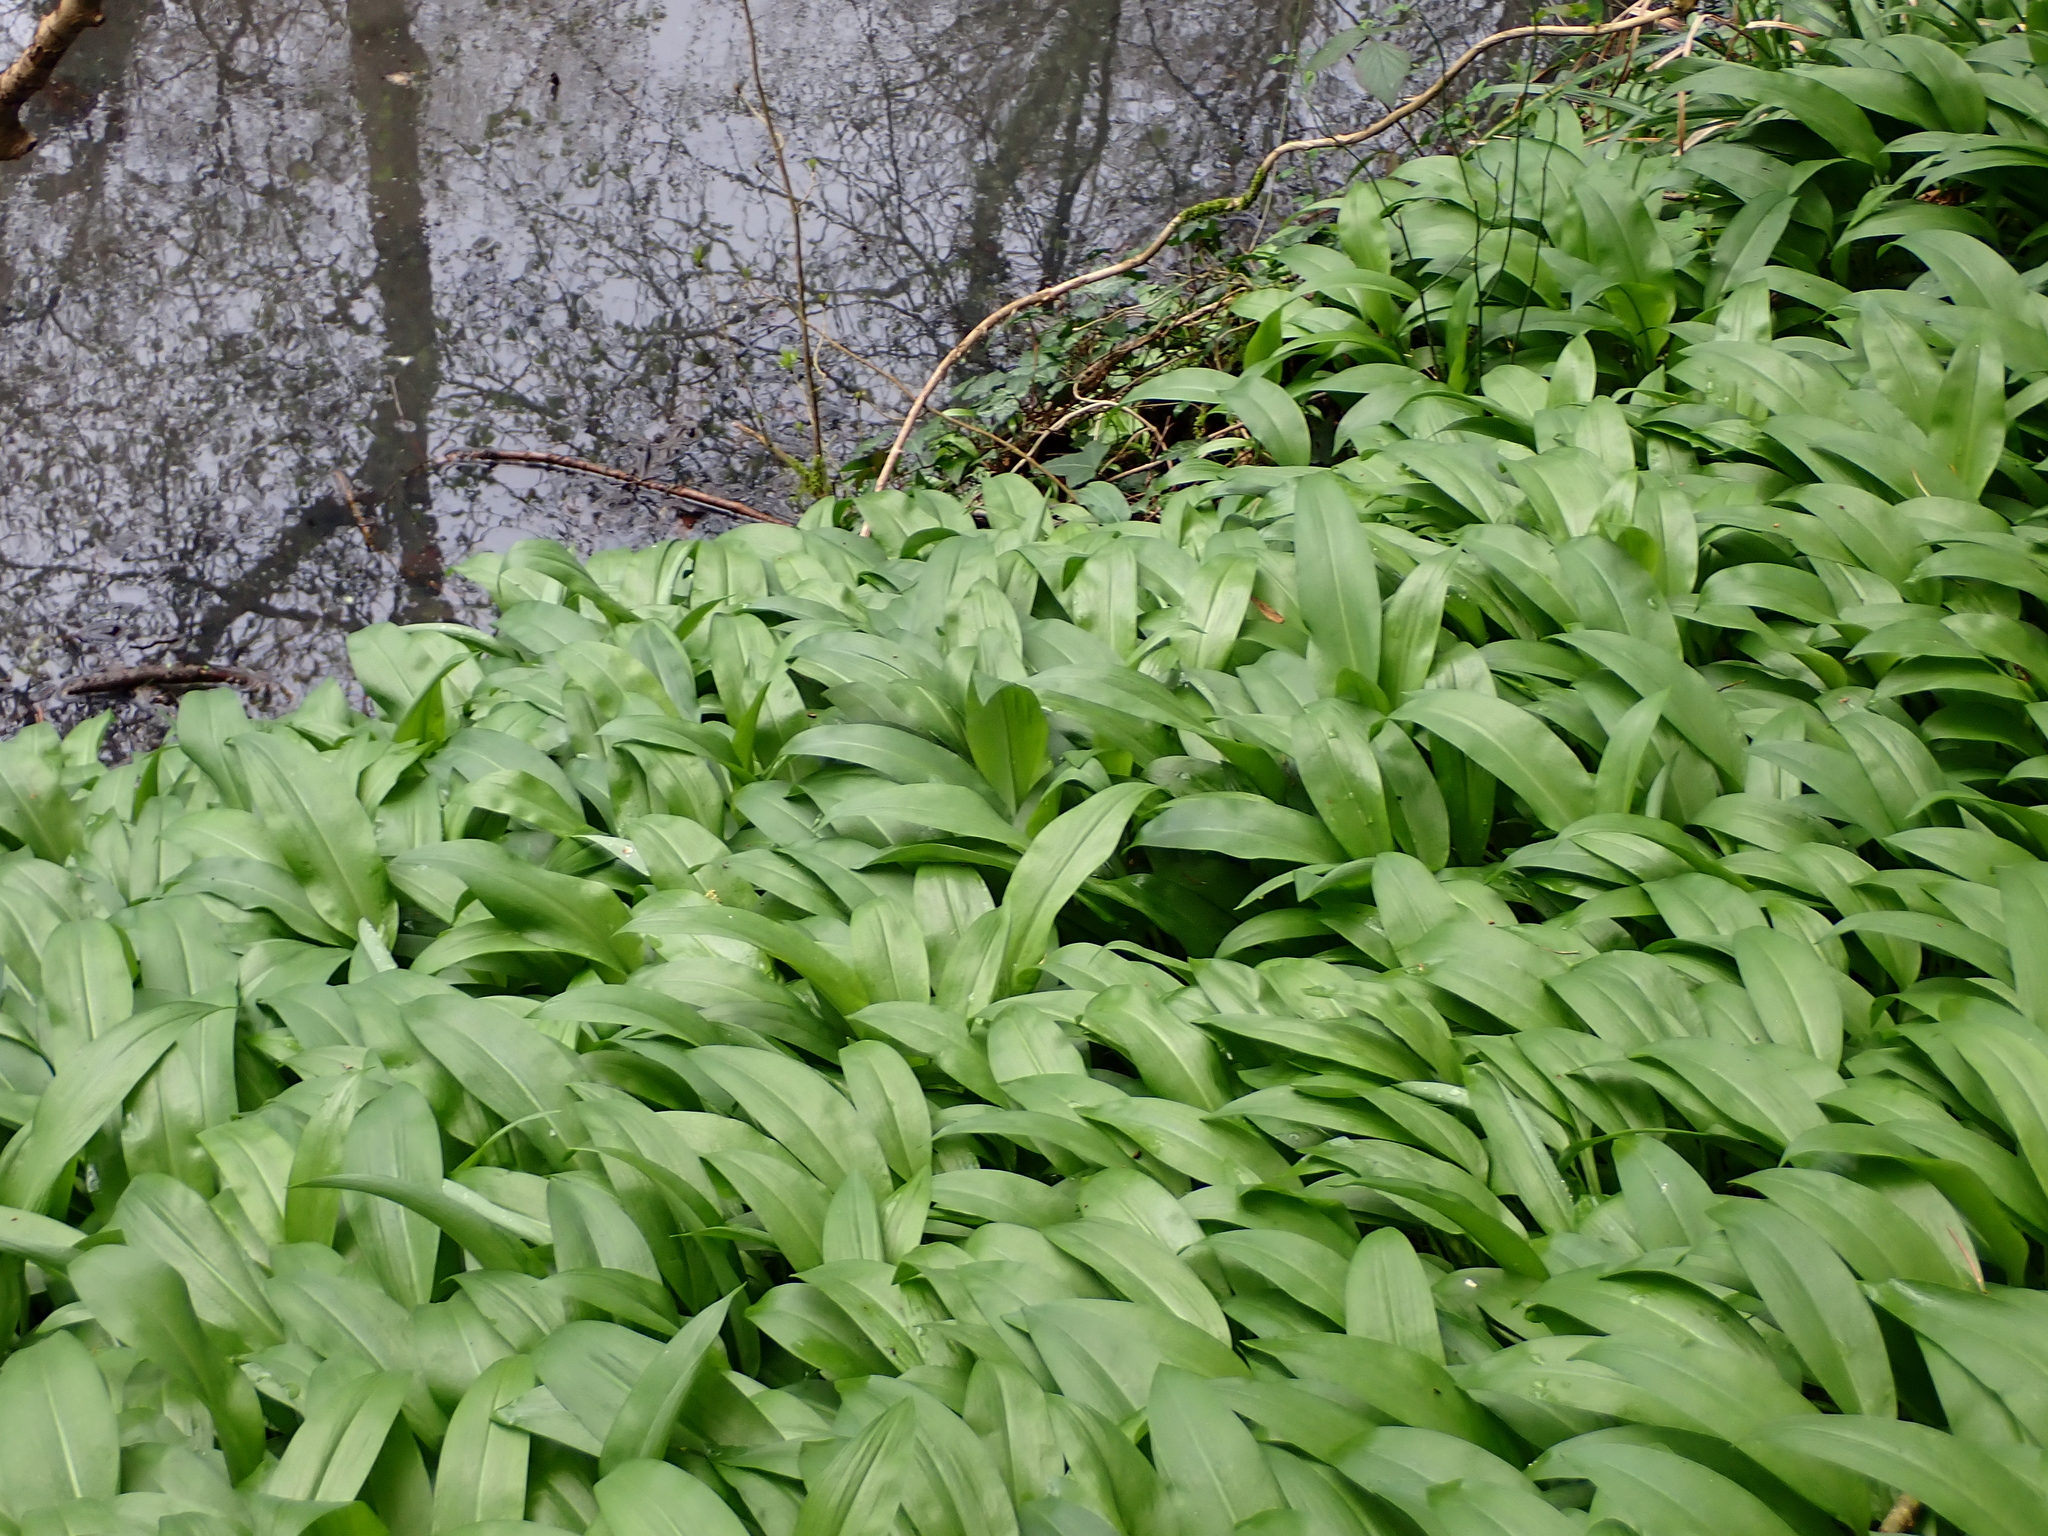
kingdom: Plantae
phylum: Tracheophyta
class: Liliopsida
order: Asparagales
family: Amaryllidaceae
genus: Allium
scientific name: Allium ursinum
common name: Ramsons
